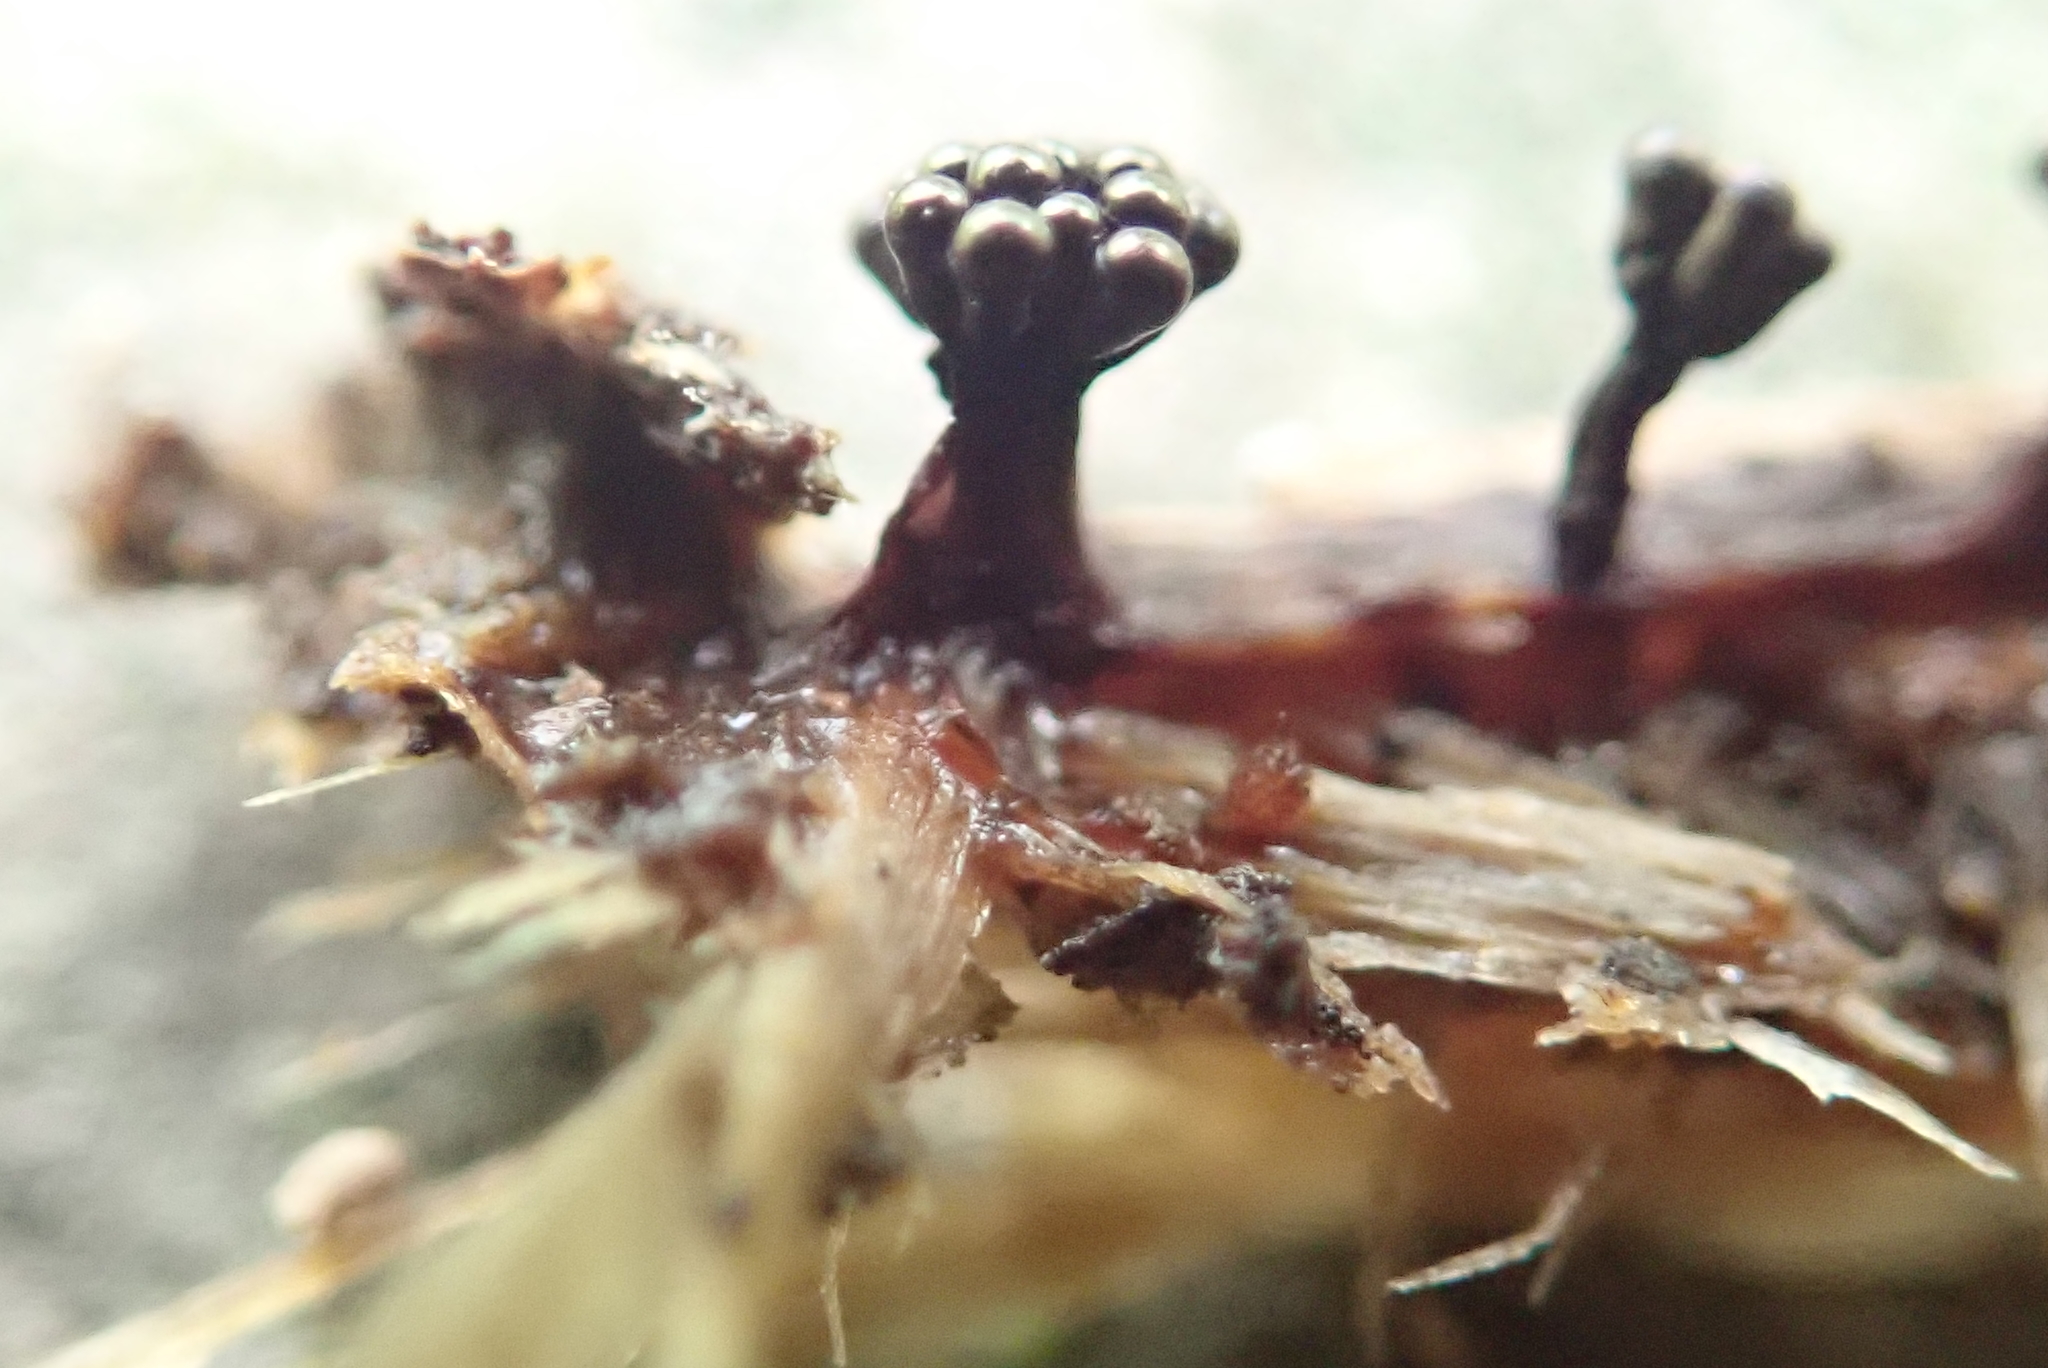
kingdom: Protozoa
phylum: Mycetozoa
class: Myxomycetes
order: Trichiales
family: Trichiaceae
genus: Metatrichia
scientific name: Metatrichia vesparia
